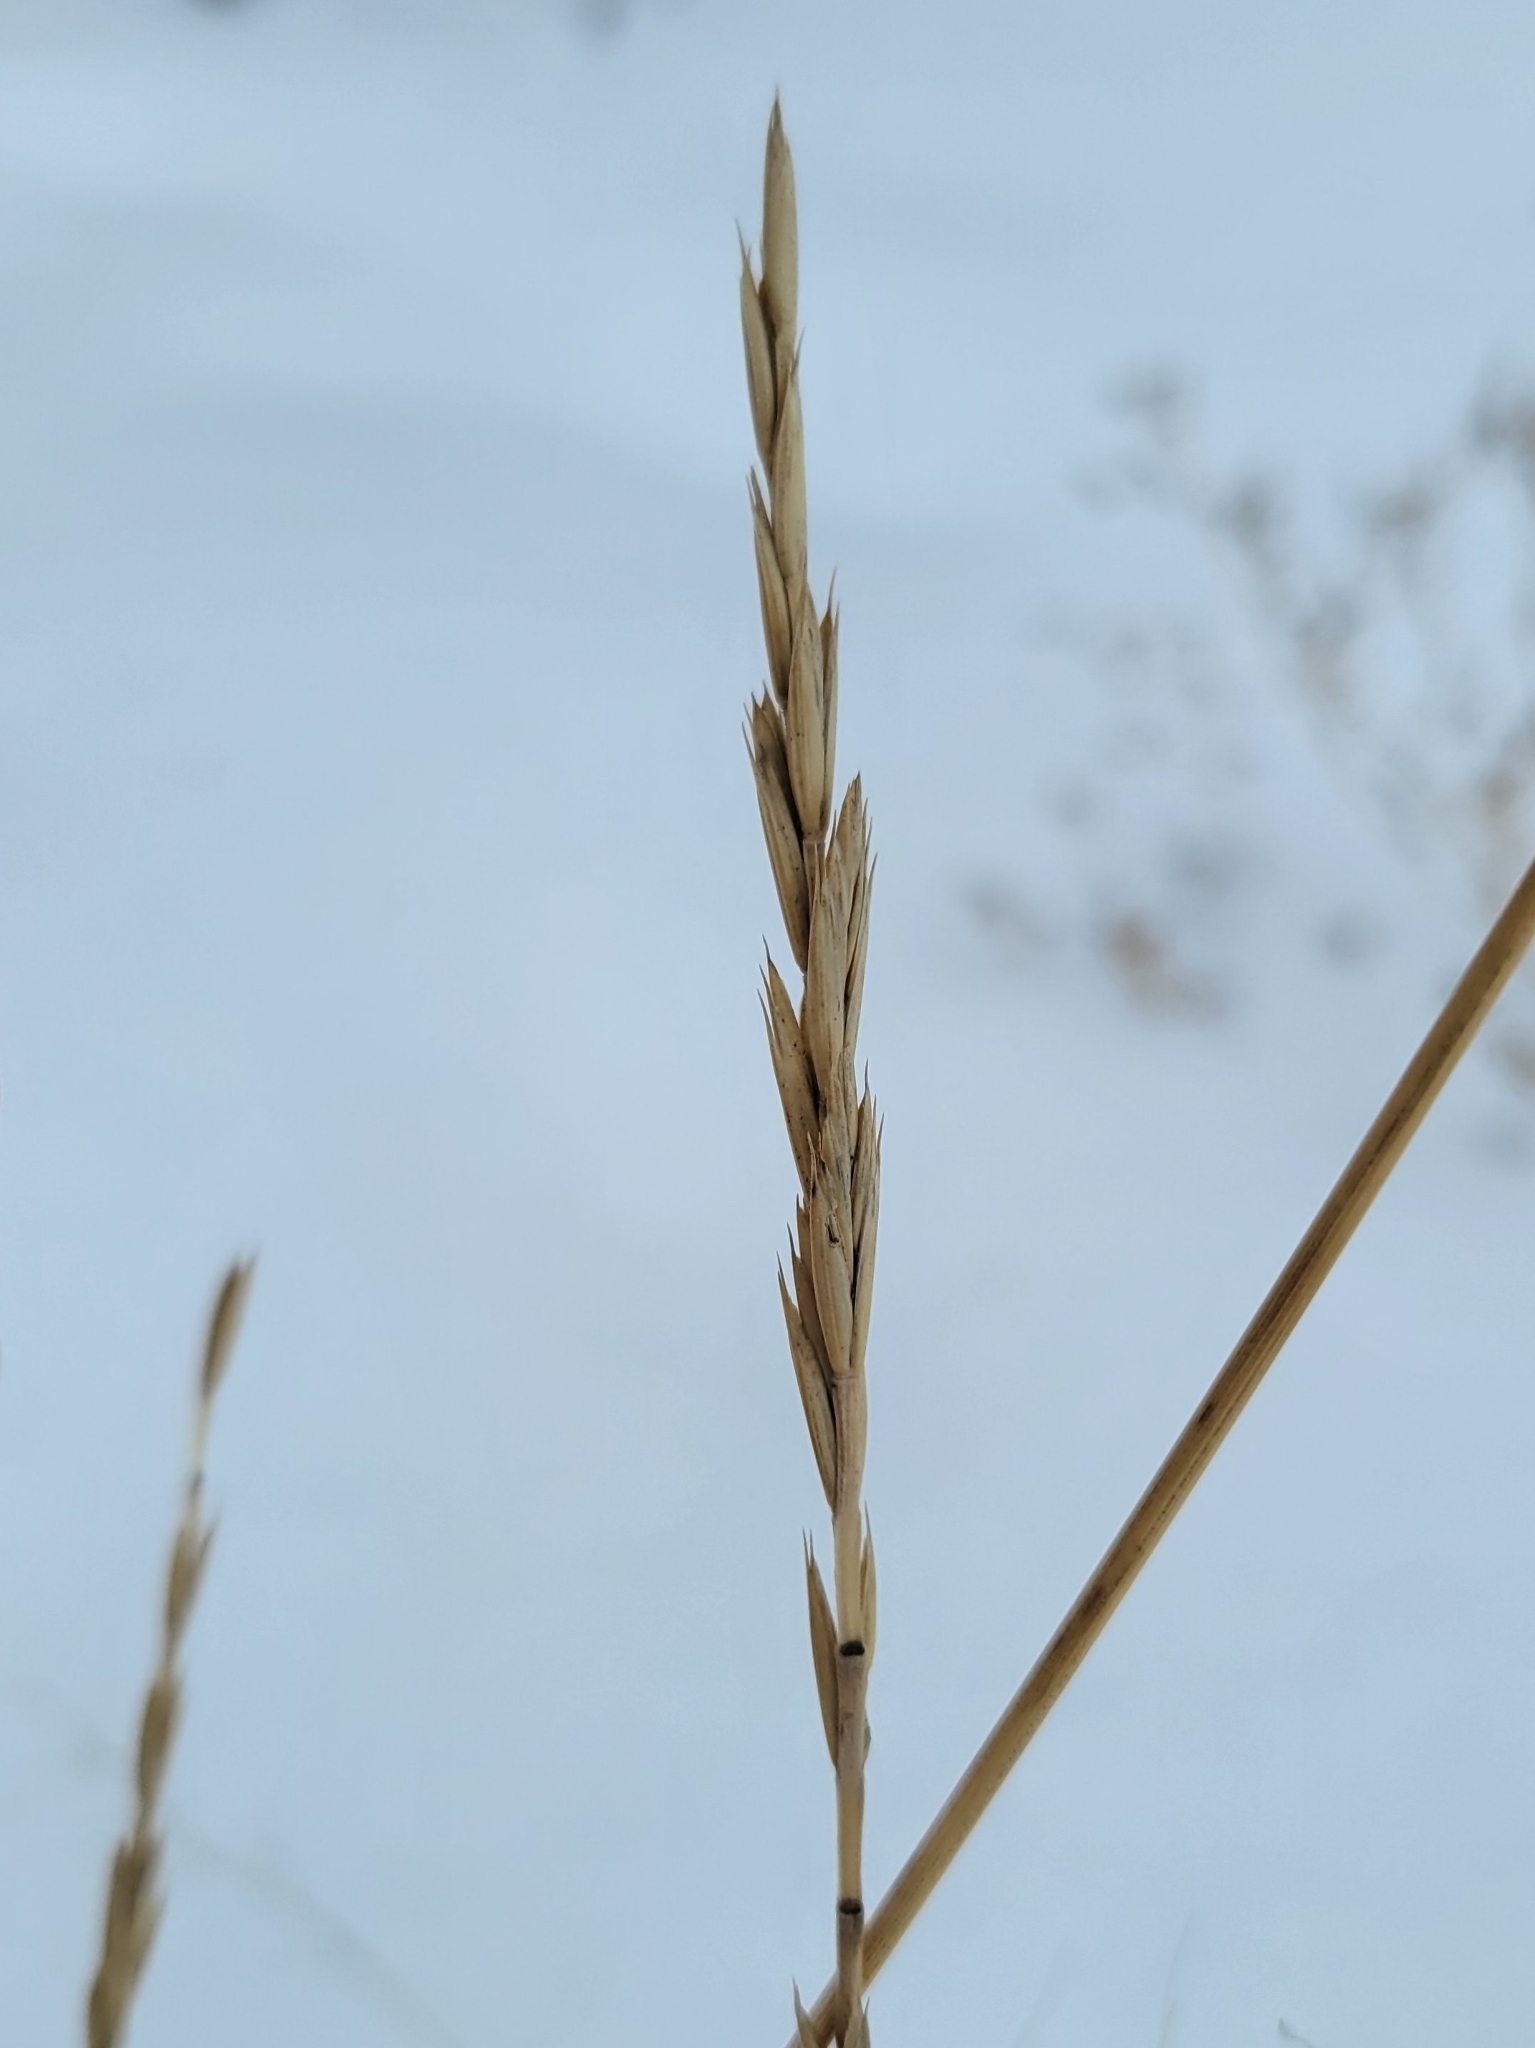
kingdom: Plantae
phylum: Tracheophyta
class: Liliopsida
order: Poales
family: Poaceae
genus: Elymus
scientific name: Elymus repens
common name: Quackgrass
